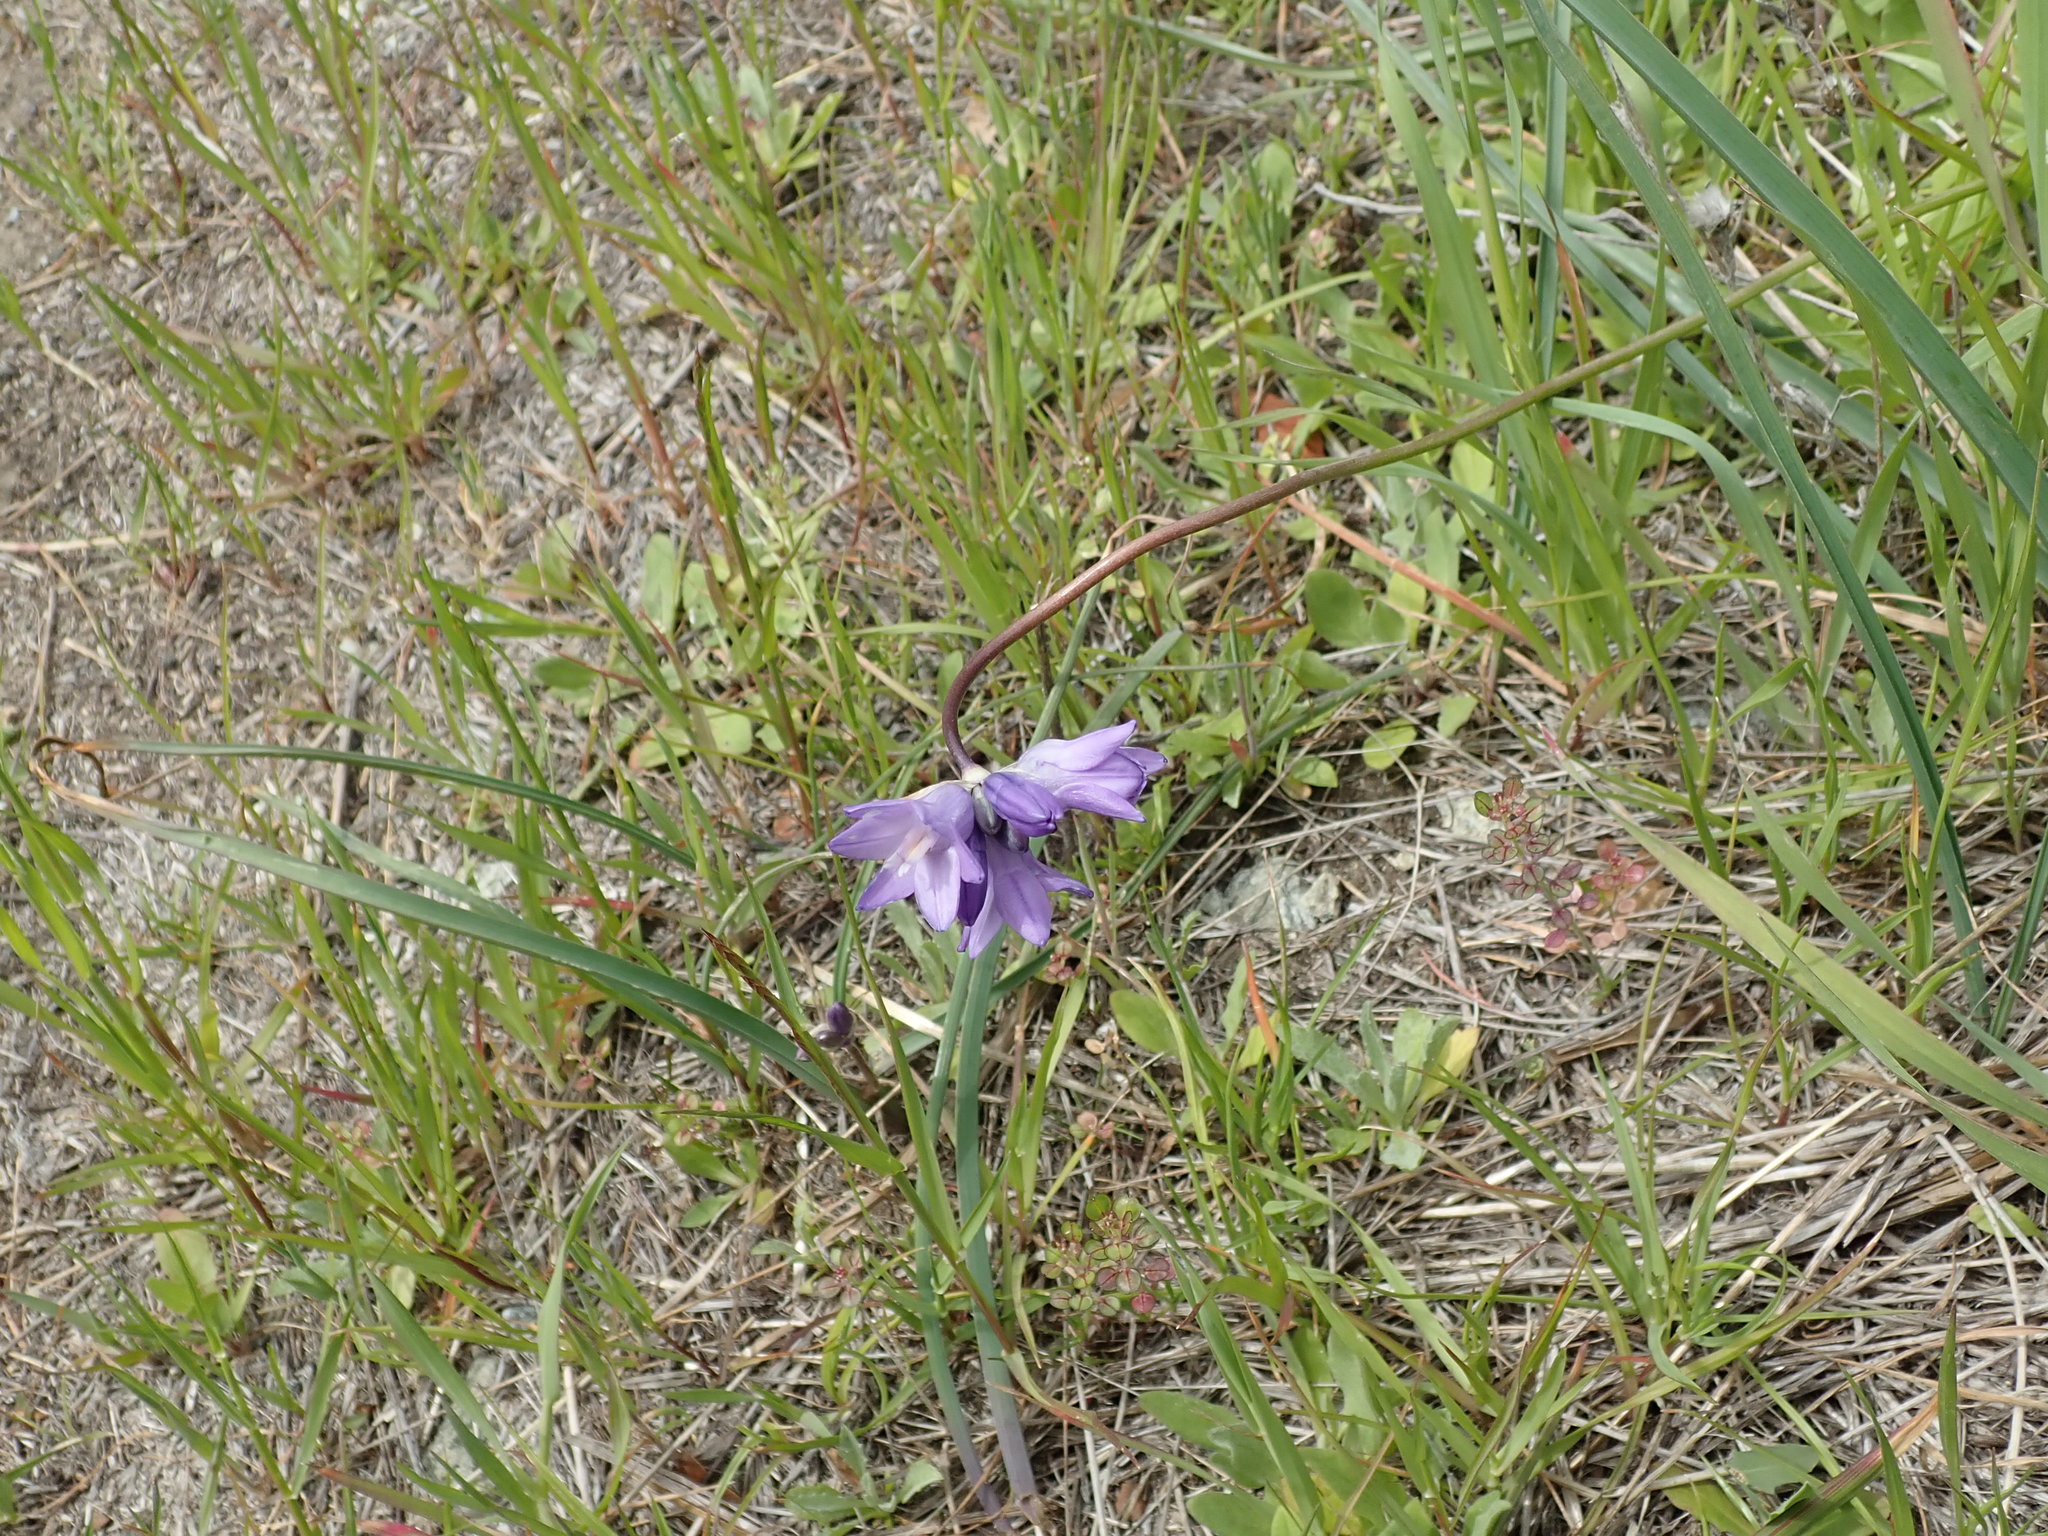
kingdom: Plantae
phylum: Tracheophyta
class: Liliopsida
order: Asparagales
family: Asparagaceae
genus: Dipterostemon
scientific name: Dipterostemon capitatus
